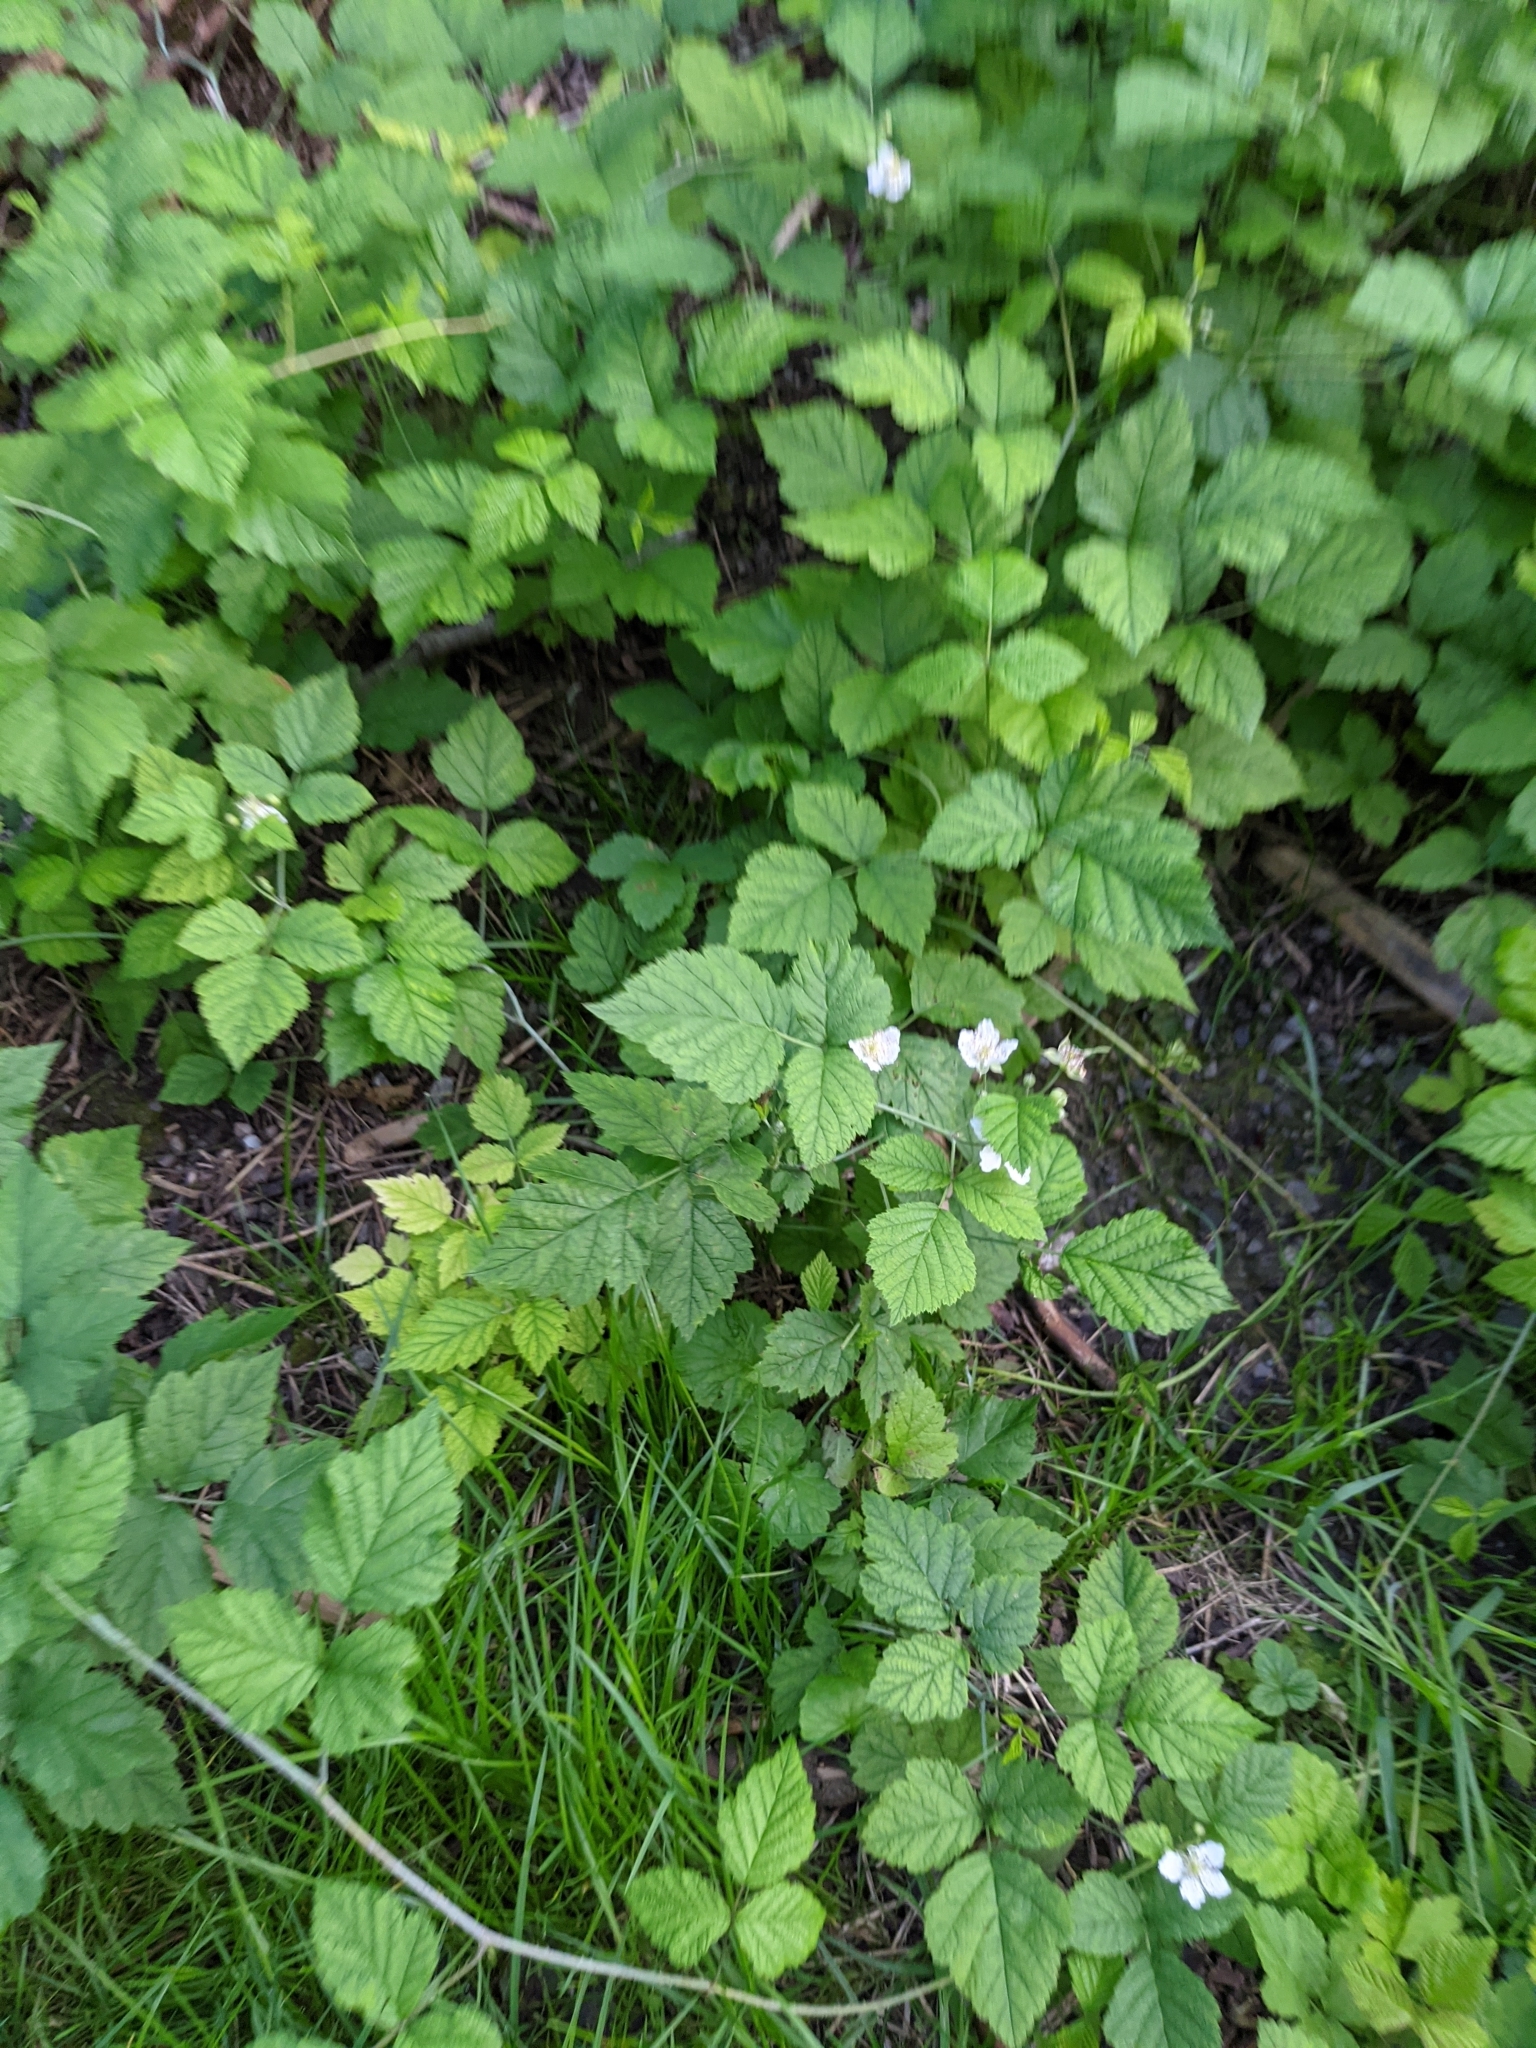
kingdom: Plantae
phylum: Tracheophyta
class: Magnoliopsida
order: Rosales
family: Rosaceae
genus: Rubus
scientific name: Rubus caesius
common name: Dewberry
